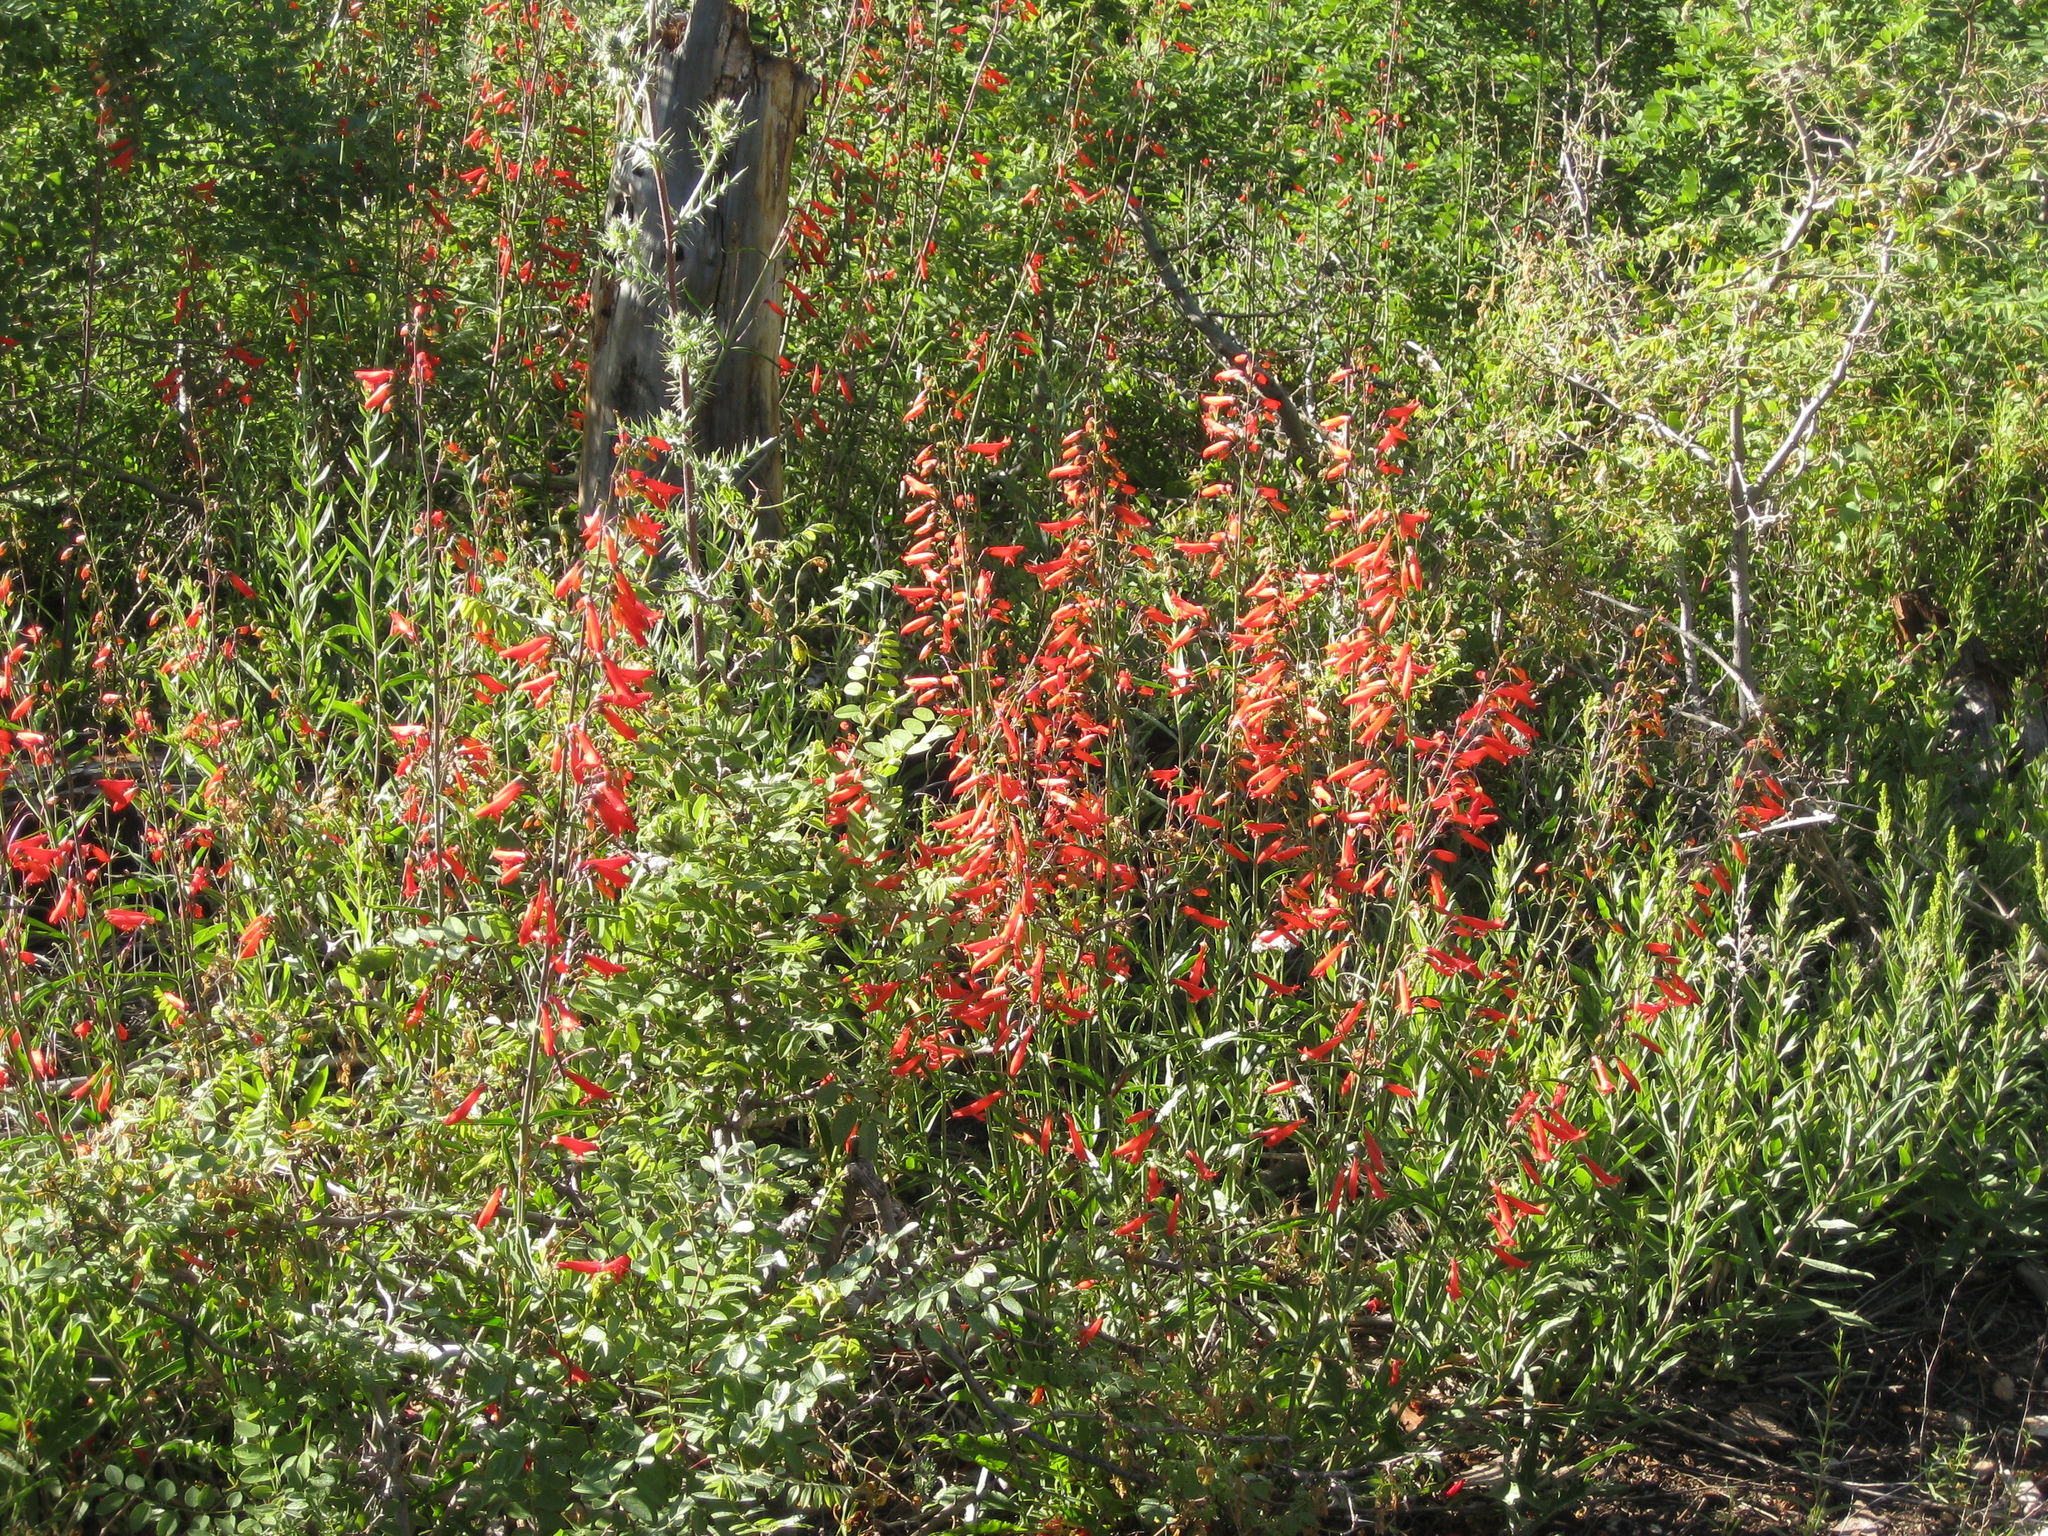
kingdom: Plantae
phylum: Tracheophyta
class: Magnoliopsida
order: Lamiales
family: Plantaginaceae
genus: Penstemon
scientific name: Penstemon barbatus
